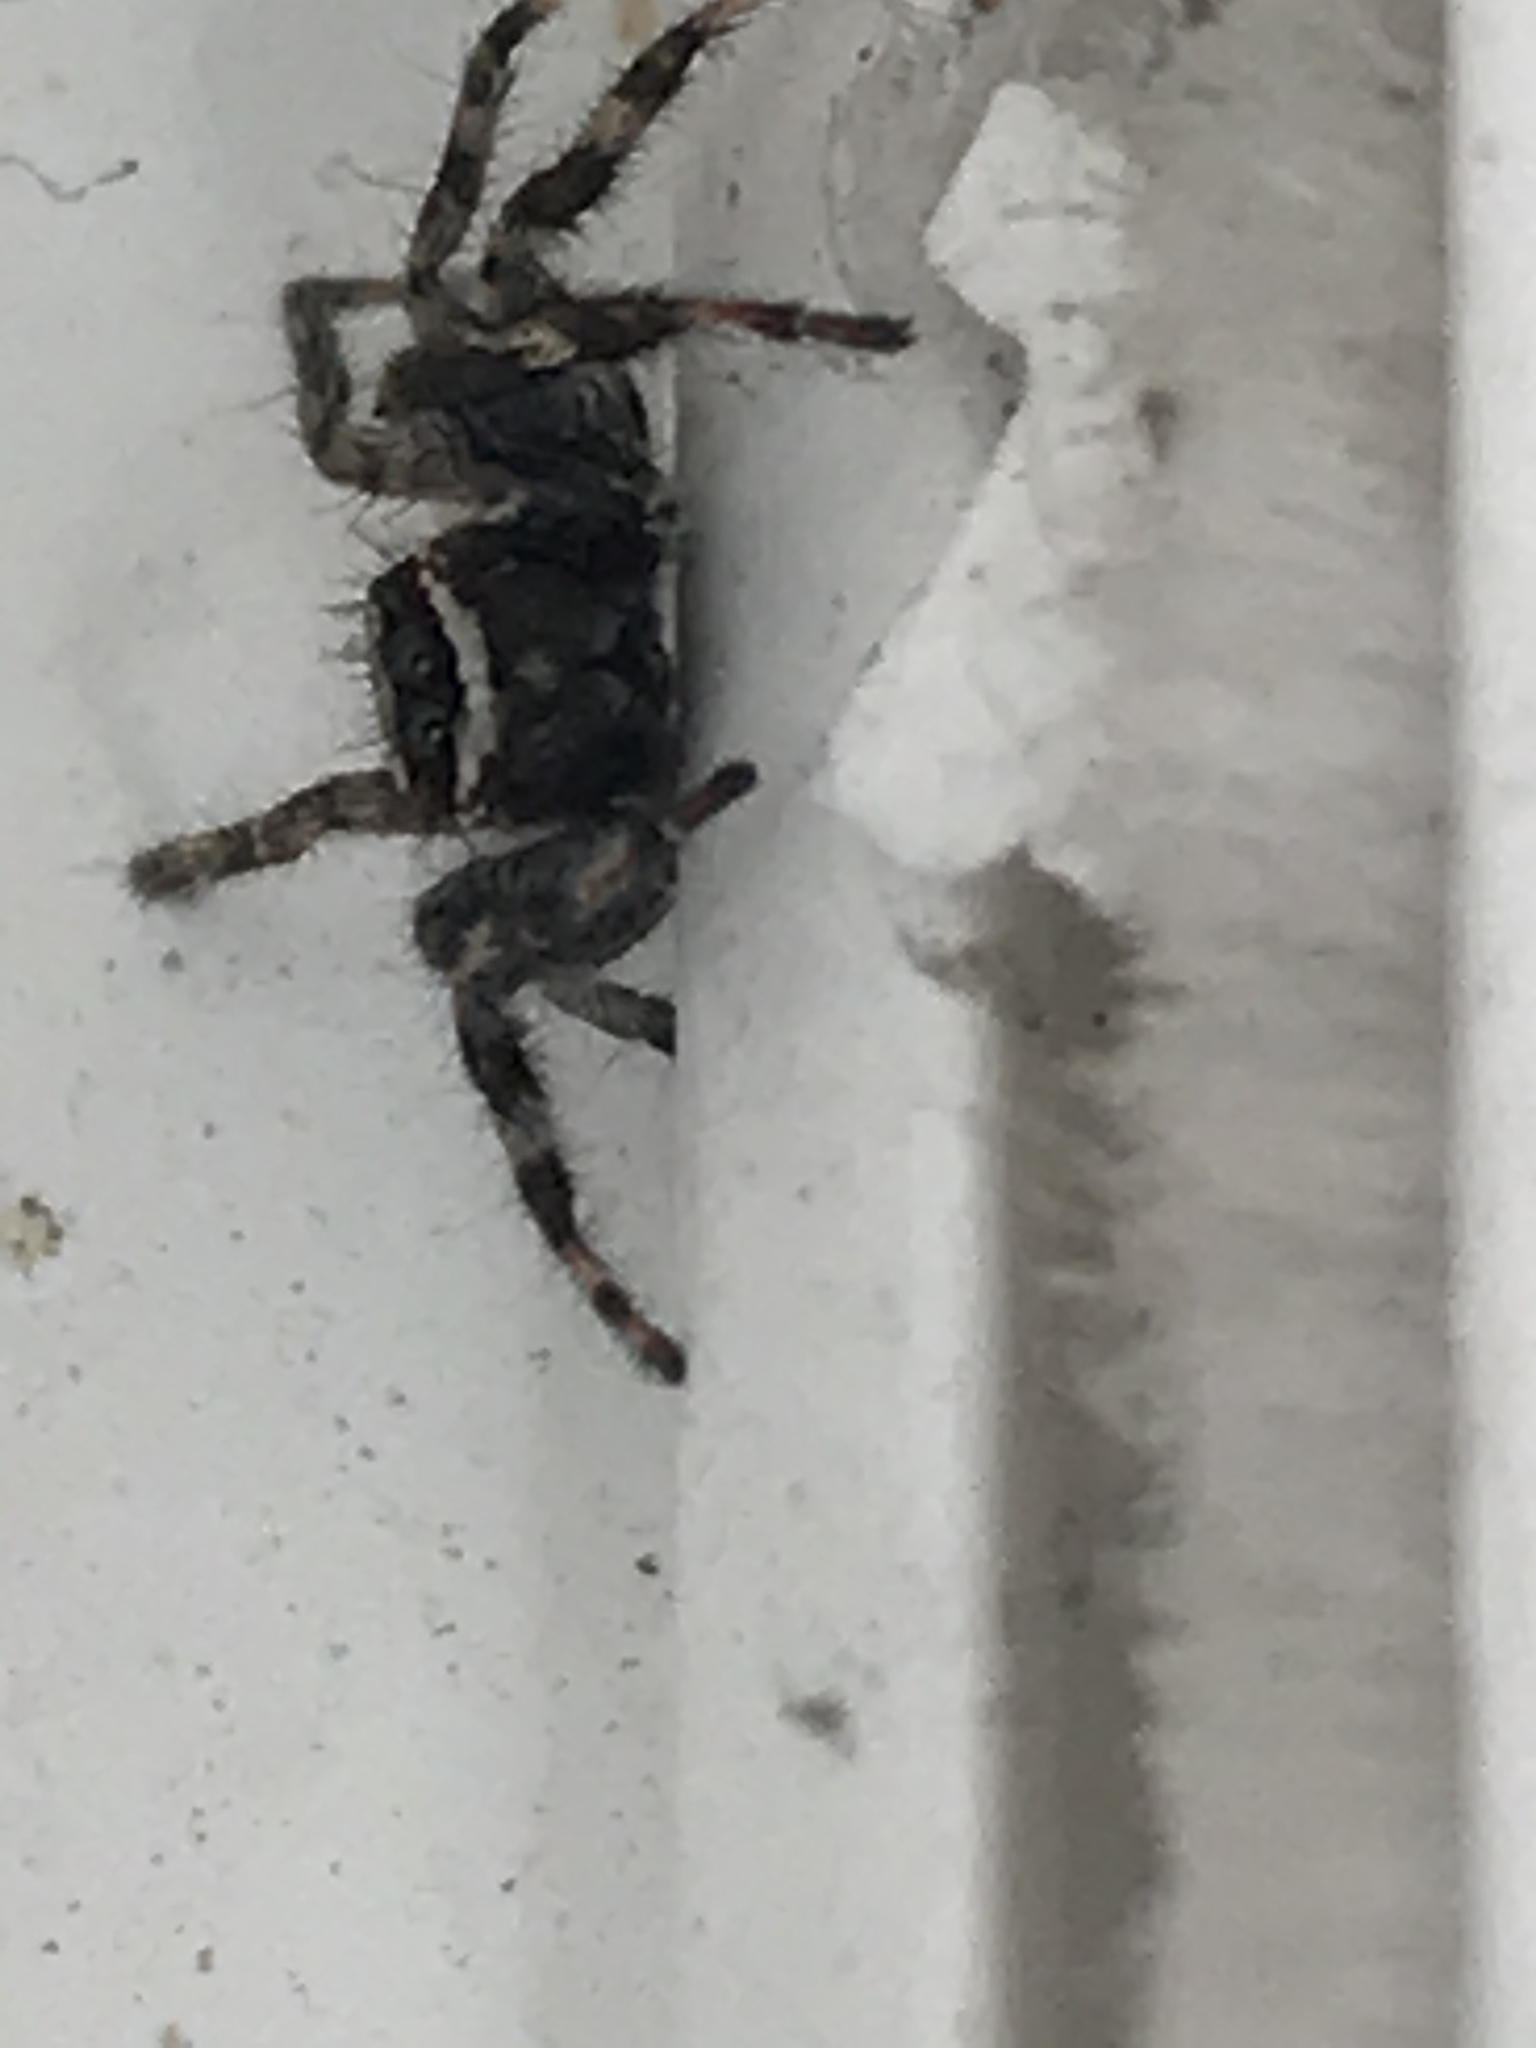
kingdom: Animalia
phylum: Arthropoda
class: Arachnida
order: Araneae
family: Salticidae
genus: Menemerus
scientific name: Menemerus bivittatus
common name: Gray wall jumper
